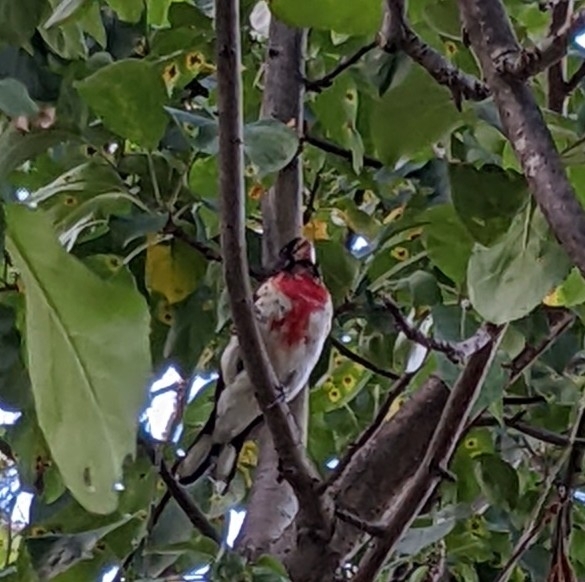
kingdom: Animalia
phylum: Chordata
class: Aves
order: Passeriformes
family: Cardinalidae
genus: Pheucticus
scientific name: Pheucticus ludovicianus
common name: Rose-breasted grosbeak
